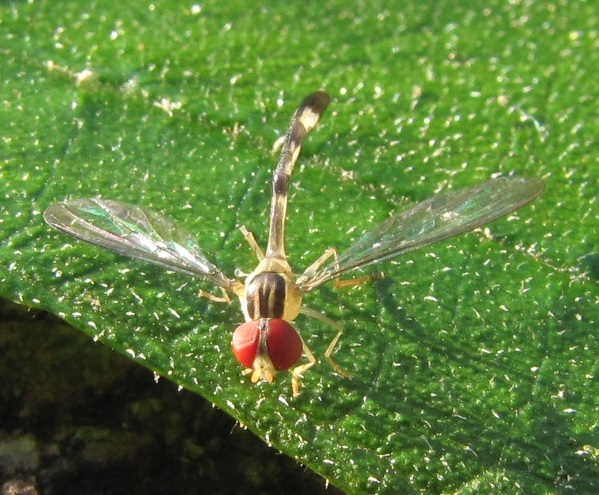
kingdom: Animalia
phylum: Arthropoda
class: Insecta
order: Diptera
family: Syrphidae
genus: Victoriana
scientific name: Victoriana attenuata
